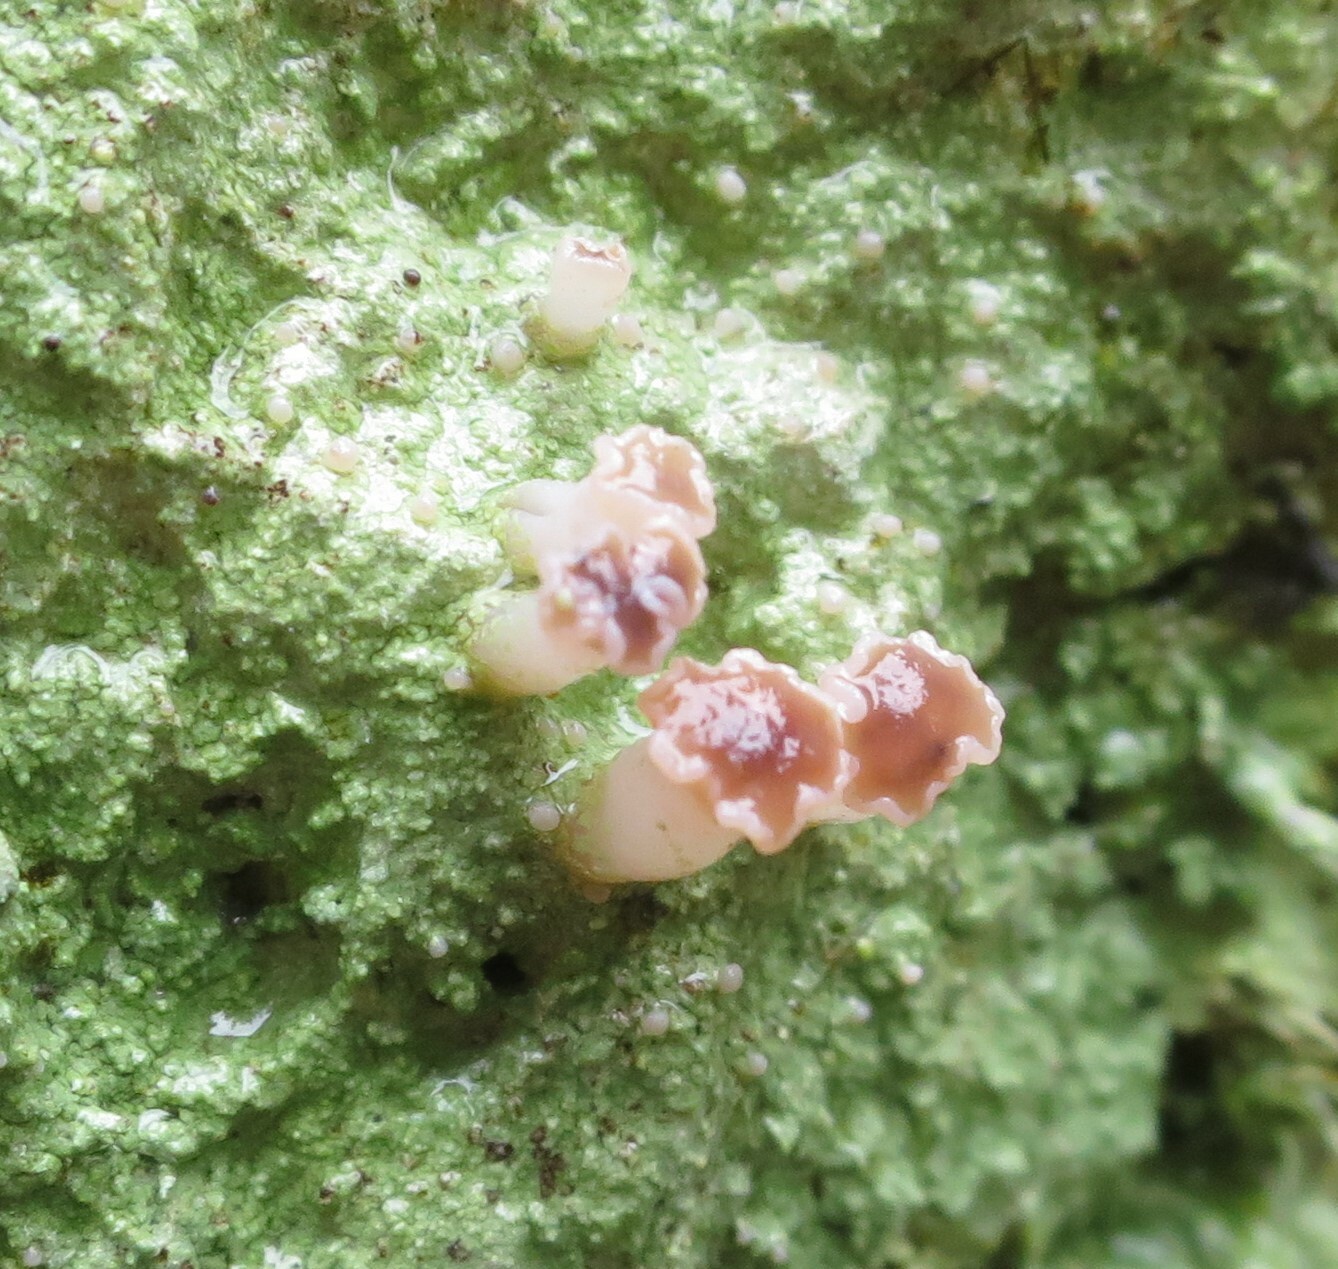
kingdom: Fungi
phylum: Ascomycota
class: Lecanoromycetes
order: Baeomycetales
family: Baeomycetaceae
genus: Baeomyces
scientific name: Baeomyces heteromorphus
